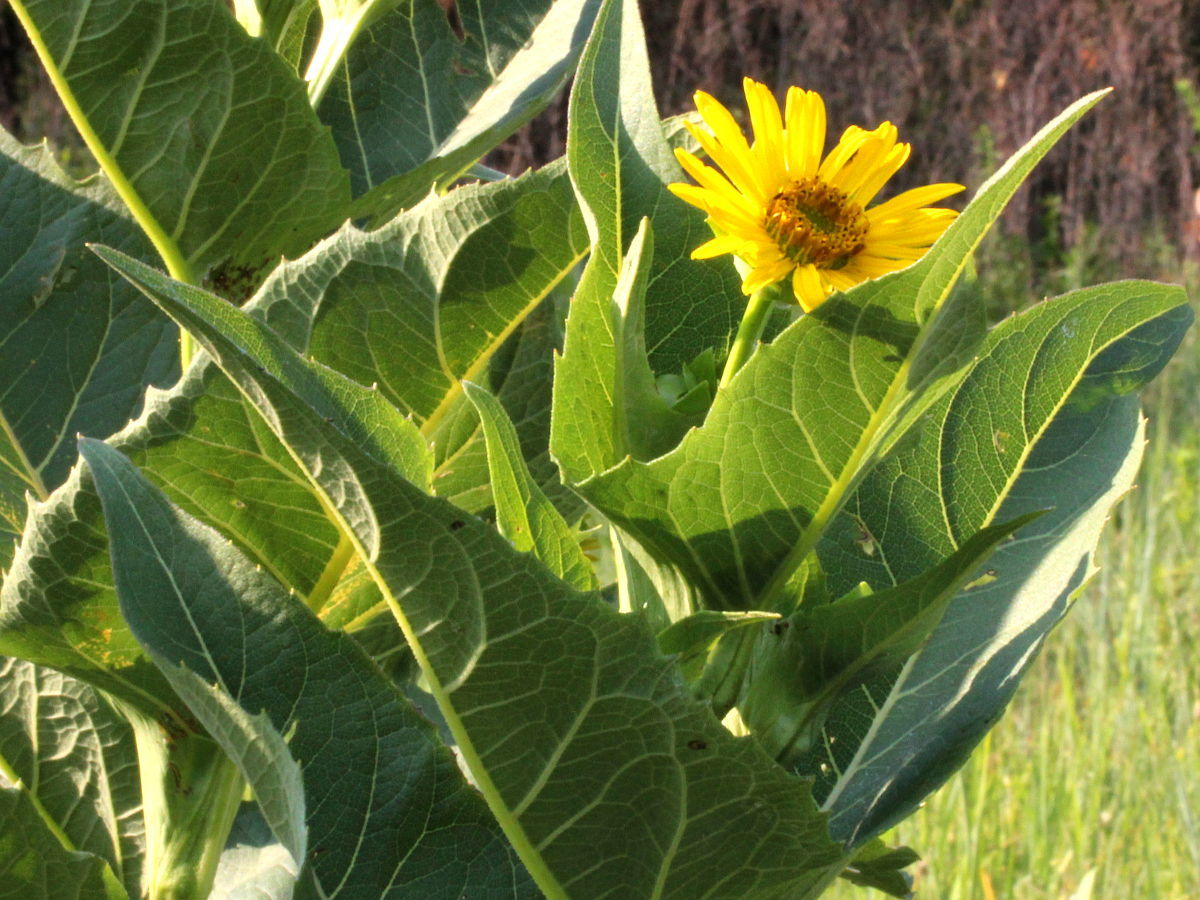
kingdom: Plantae
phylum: Tracheophyta
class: Magnoliopsida
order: Asterales
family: Asteraceae
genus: Silphium
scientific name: Silphium perfoliatum
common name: Cup-plant
